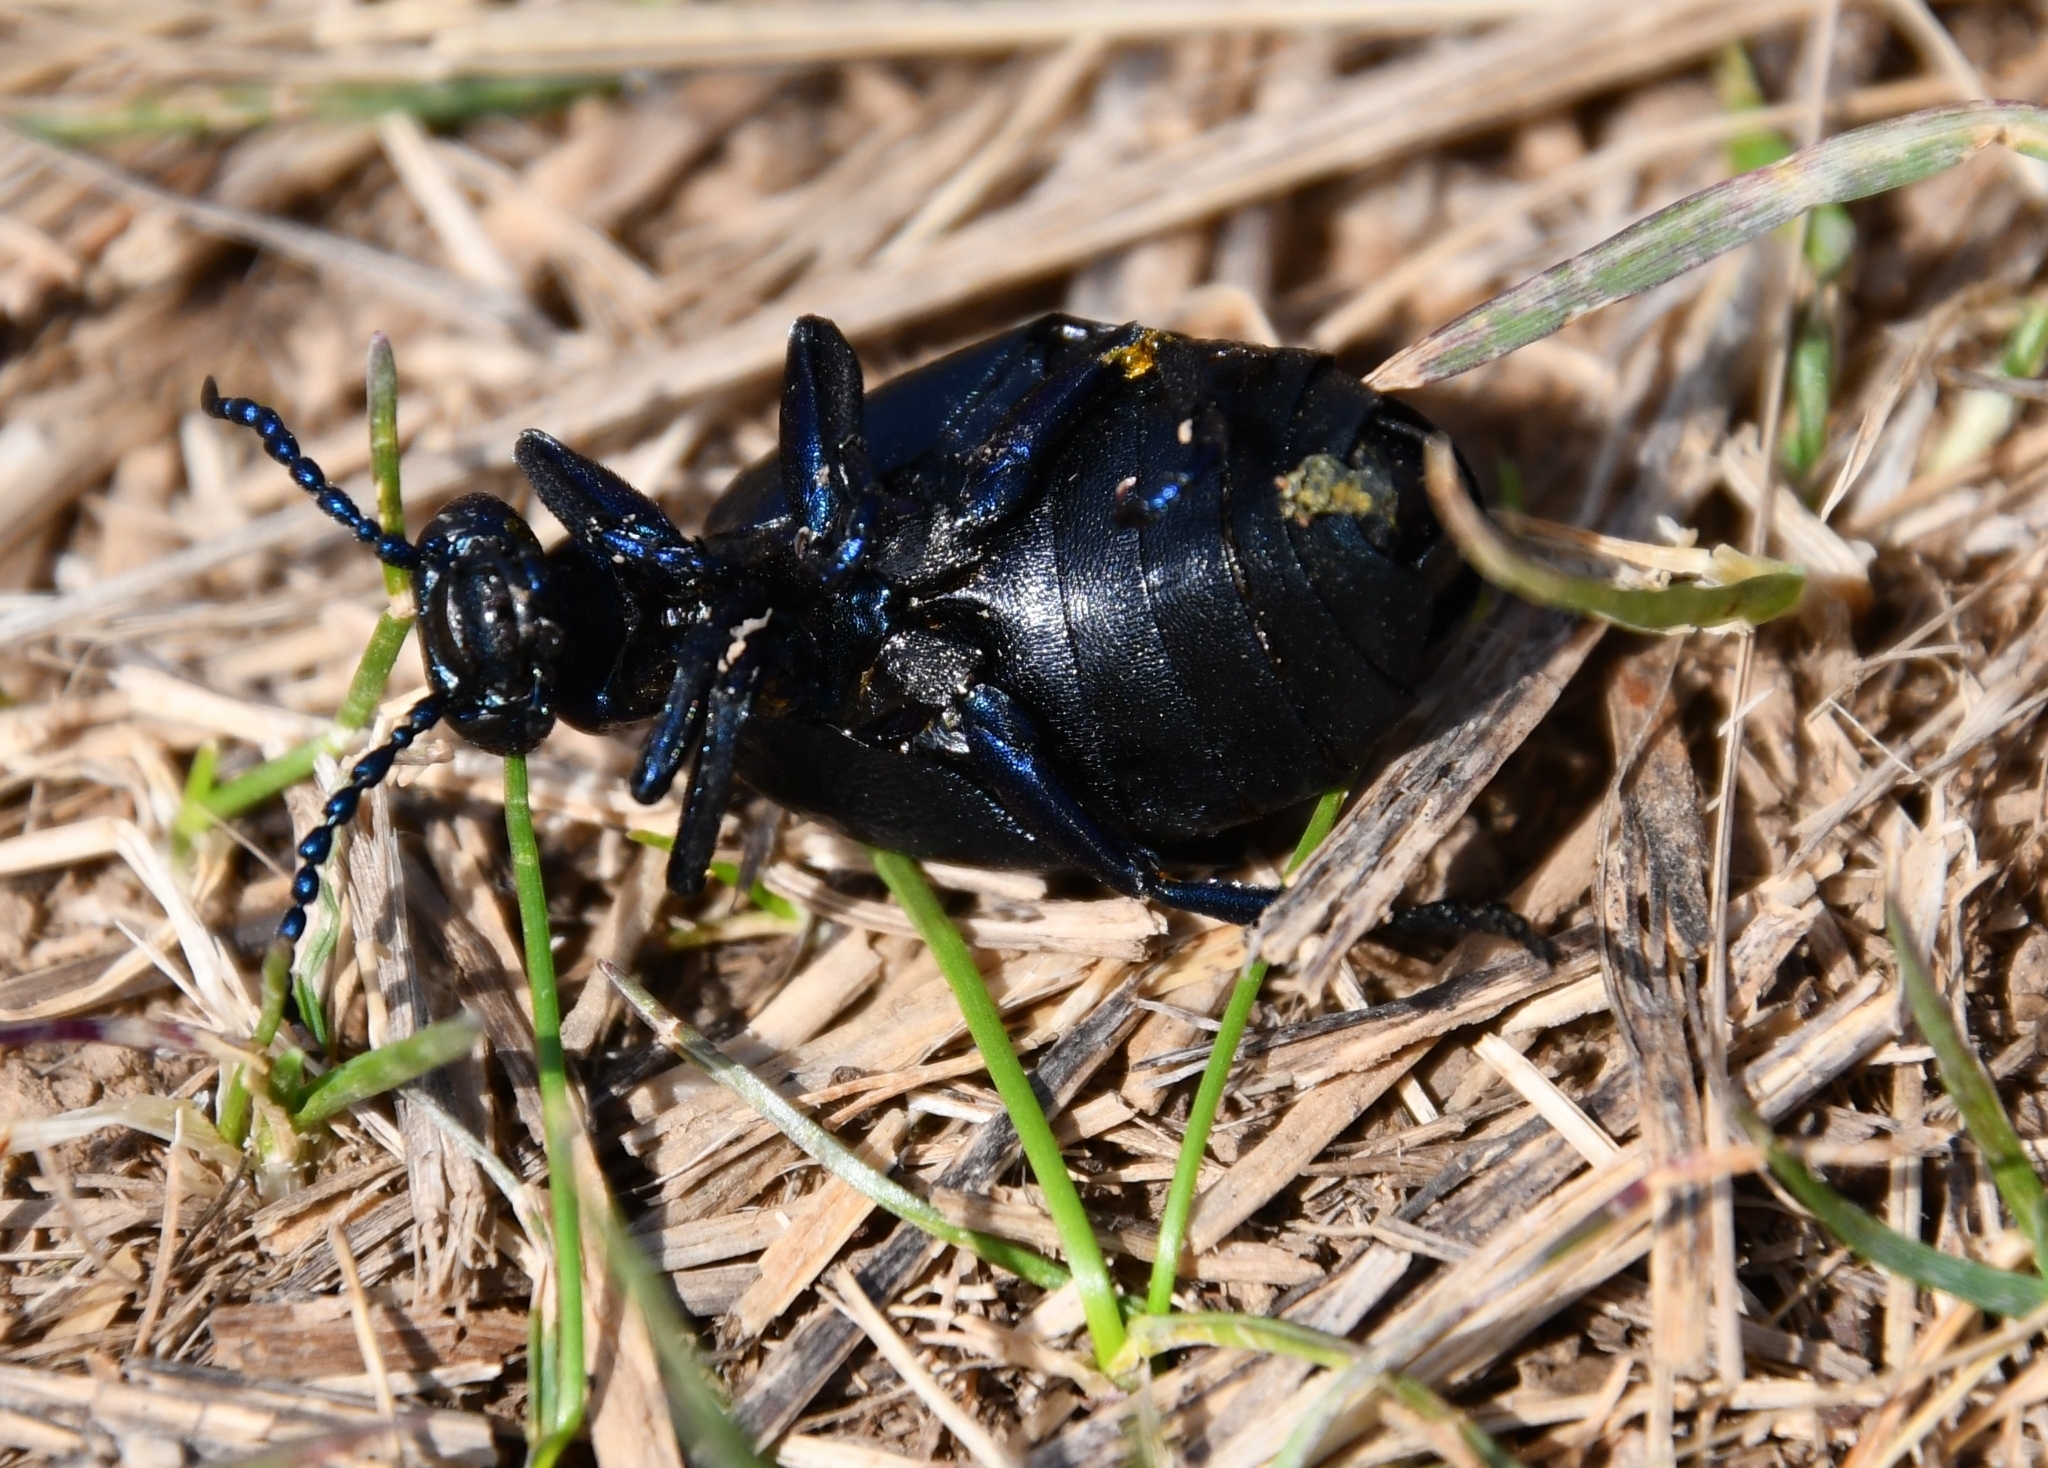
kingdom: Animalia
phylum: Arthropoda
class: Insecta
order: Coleoptera
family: Meloidae
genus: Meloe
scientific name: Meloe proscarabaeus
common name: Black oil-beetle
